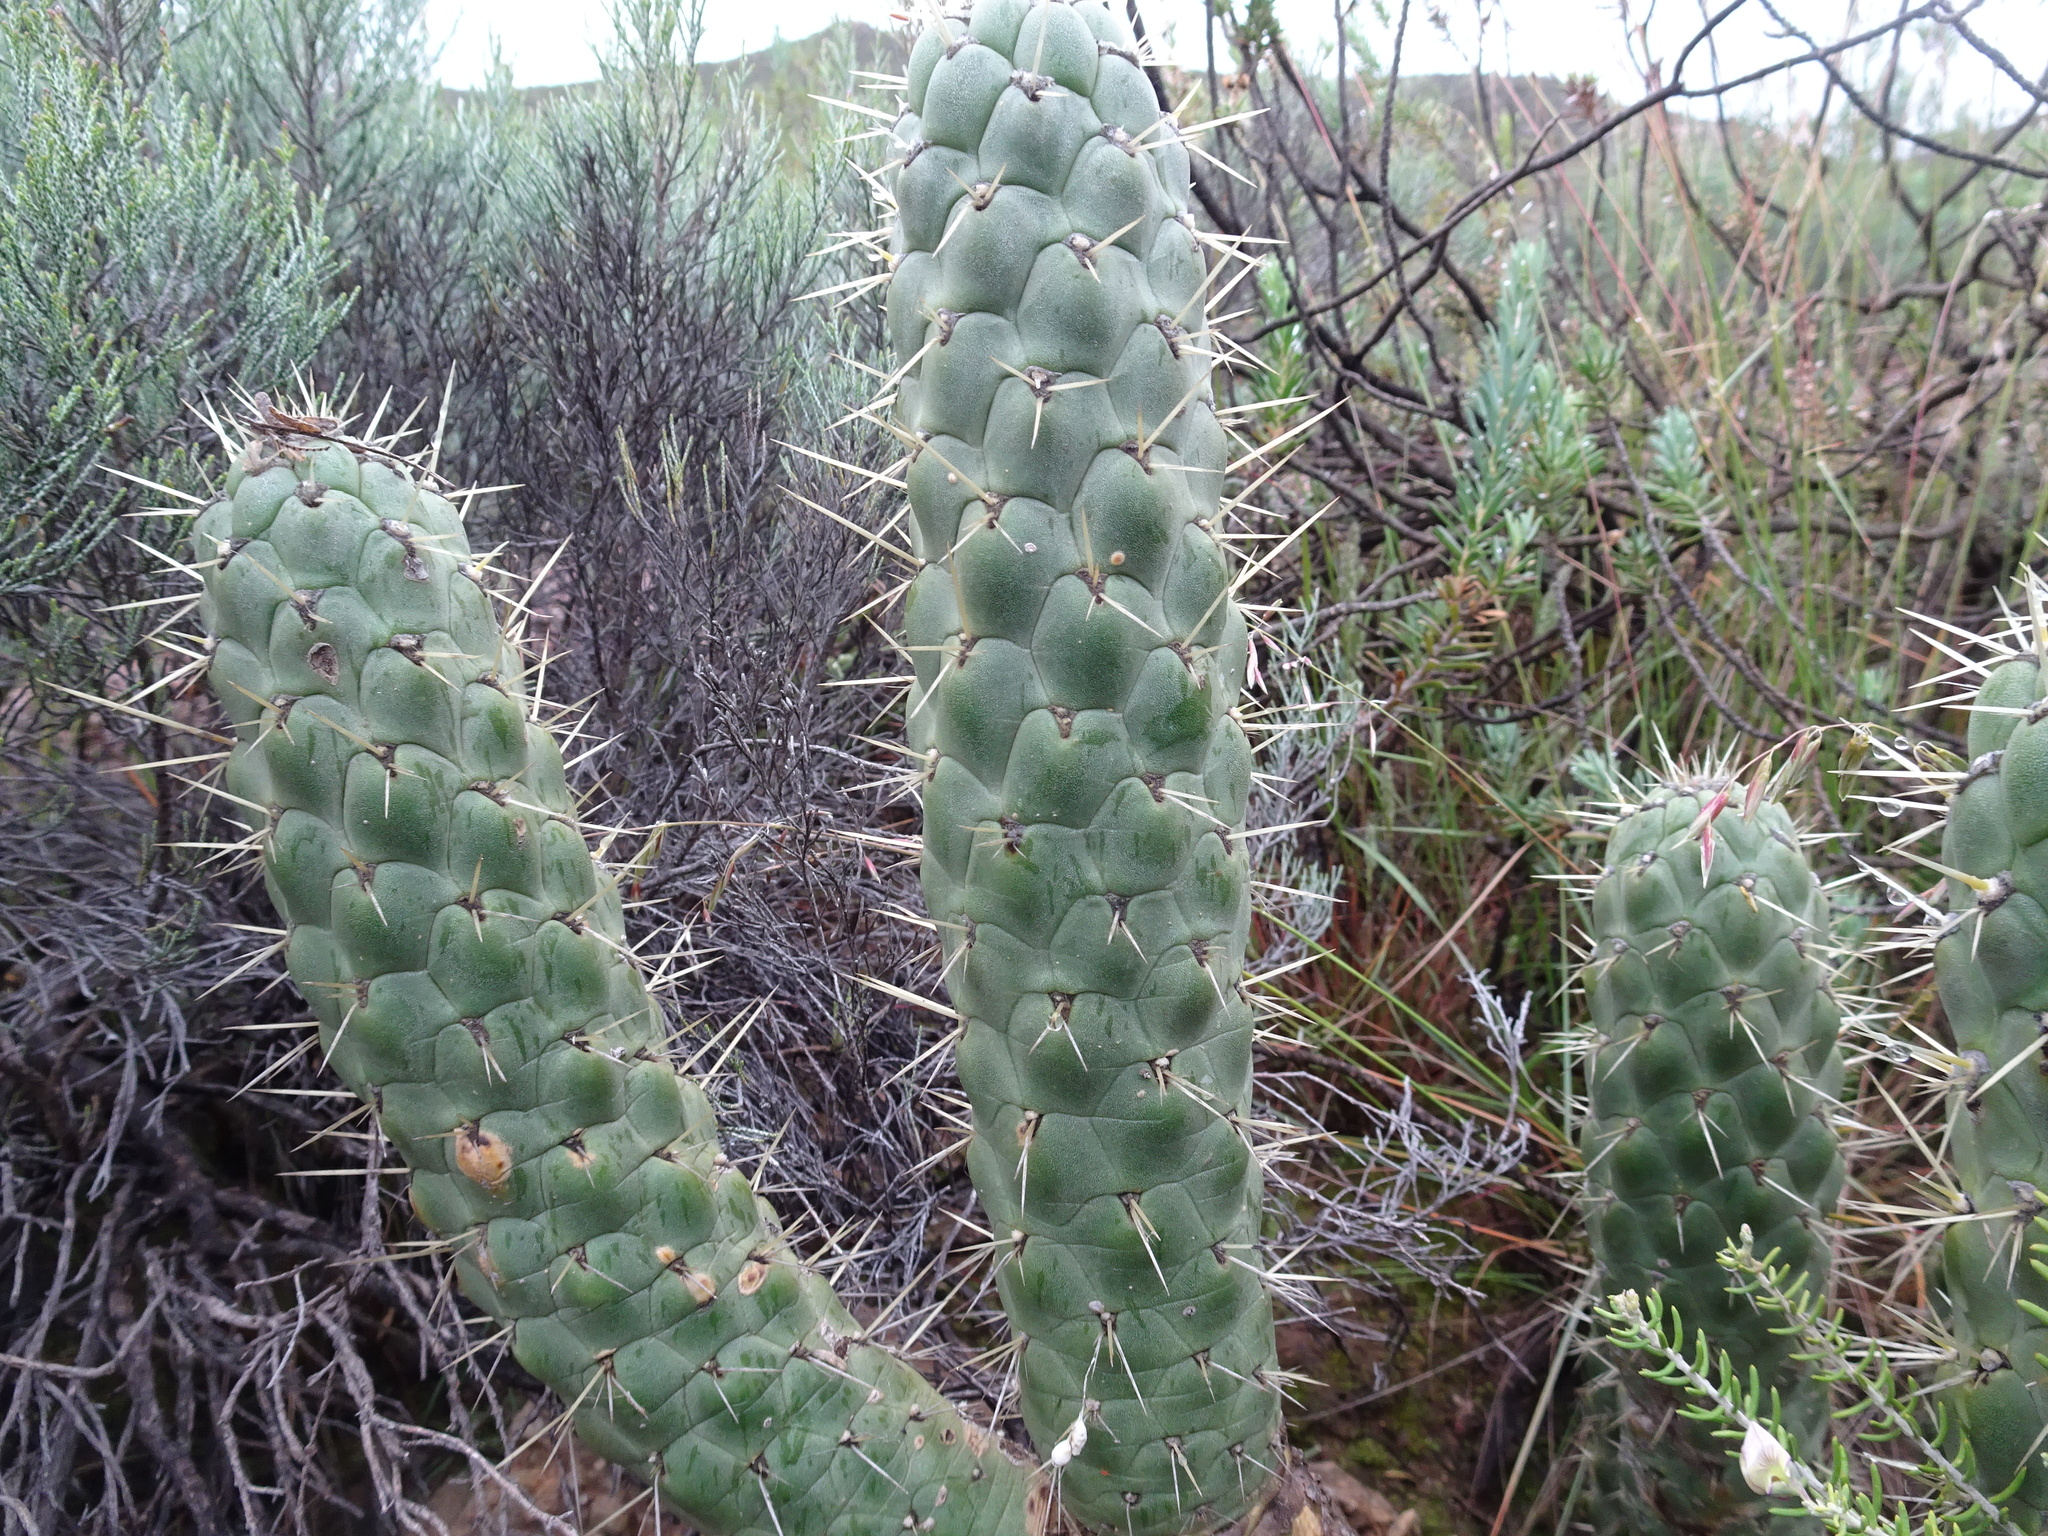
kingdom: Plantae
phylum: Tracheophyta
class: Magnoliopsida
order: Caryophyllales
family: Cactaceae
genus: Austrocylindropuntia
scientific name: Austrocylindropuntia cylindrica
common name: Cane cactus
